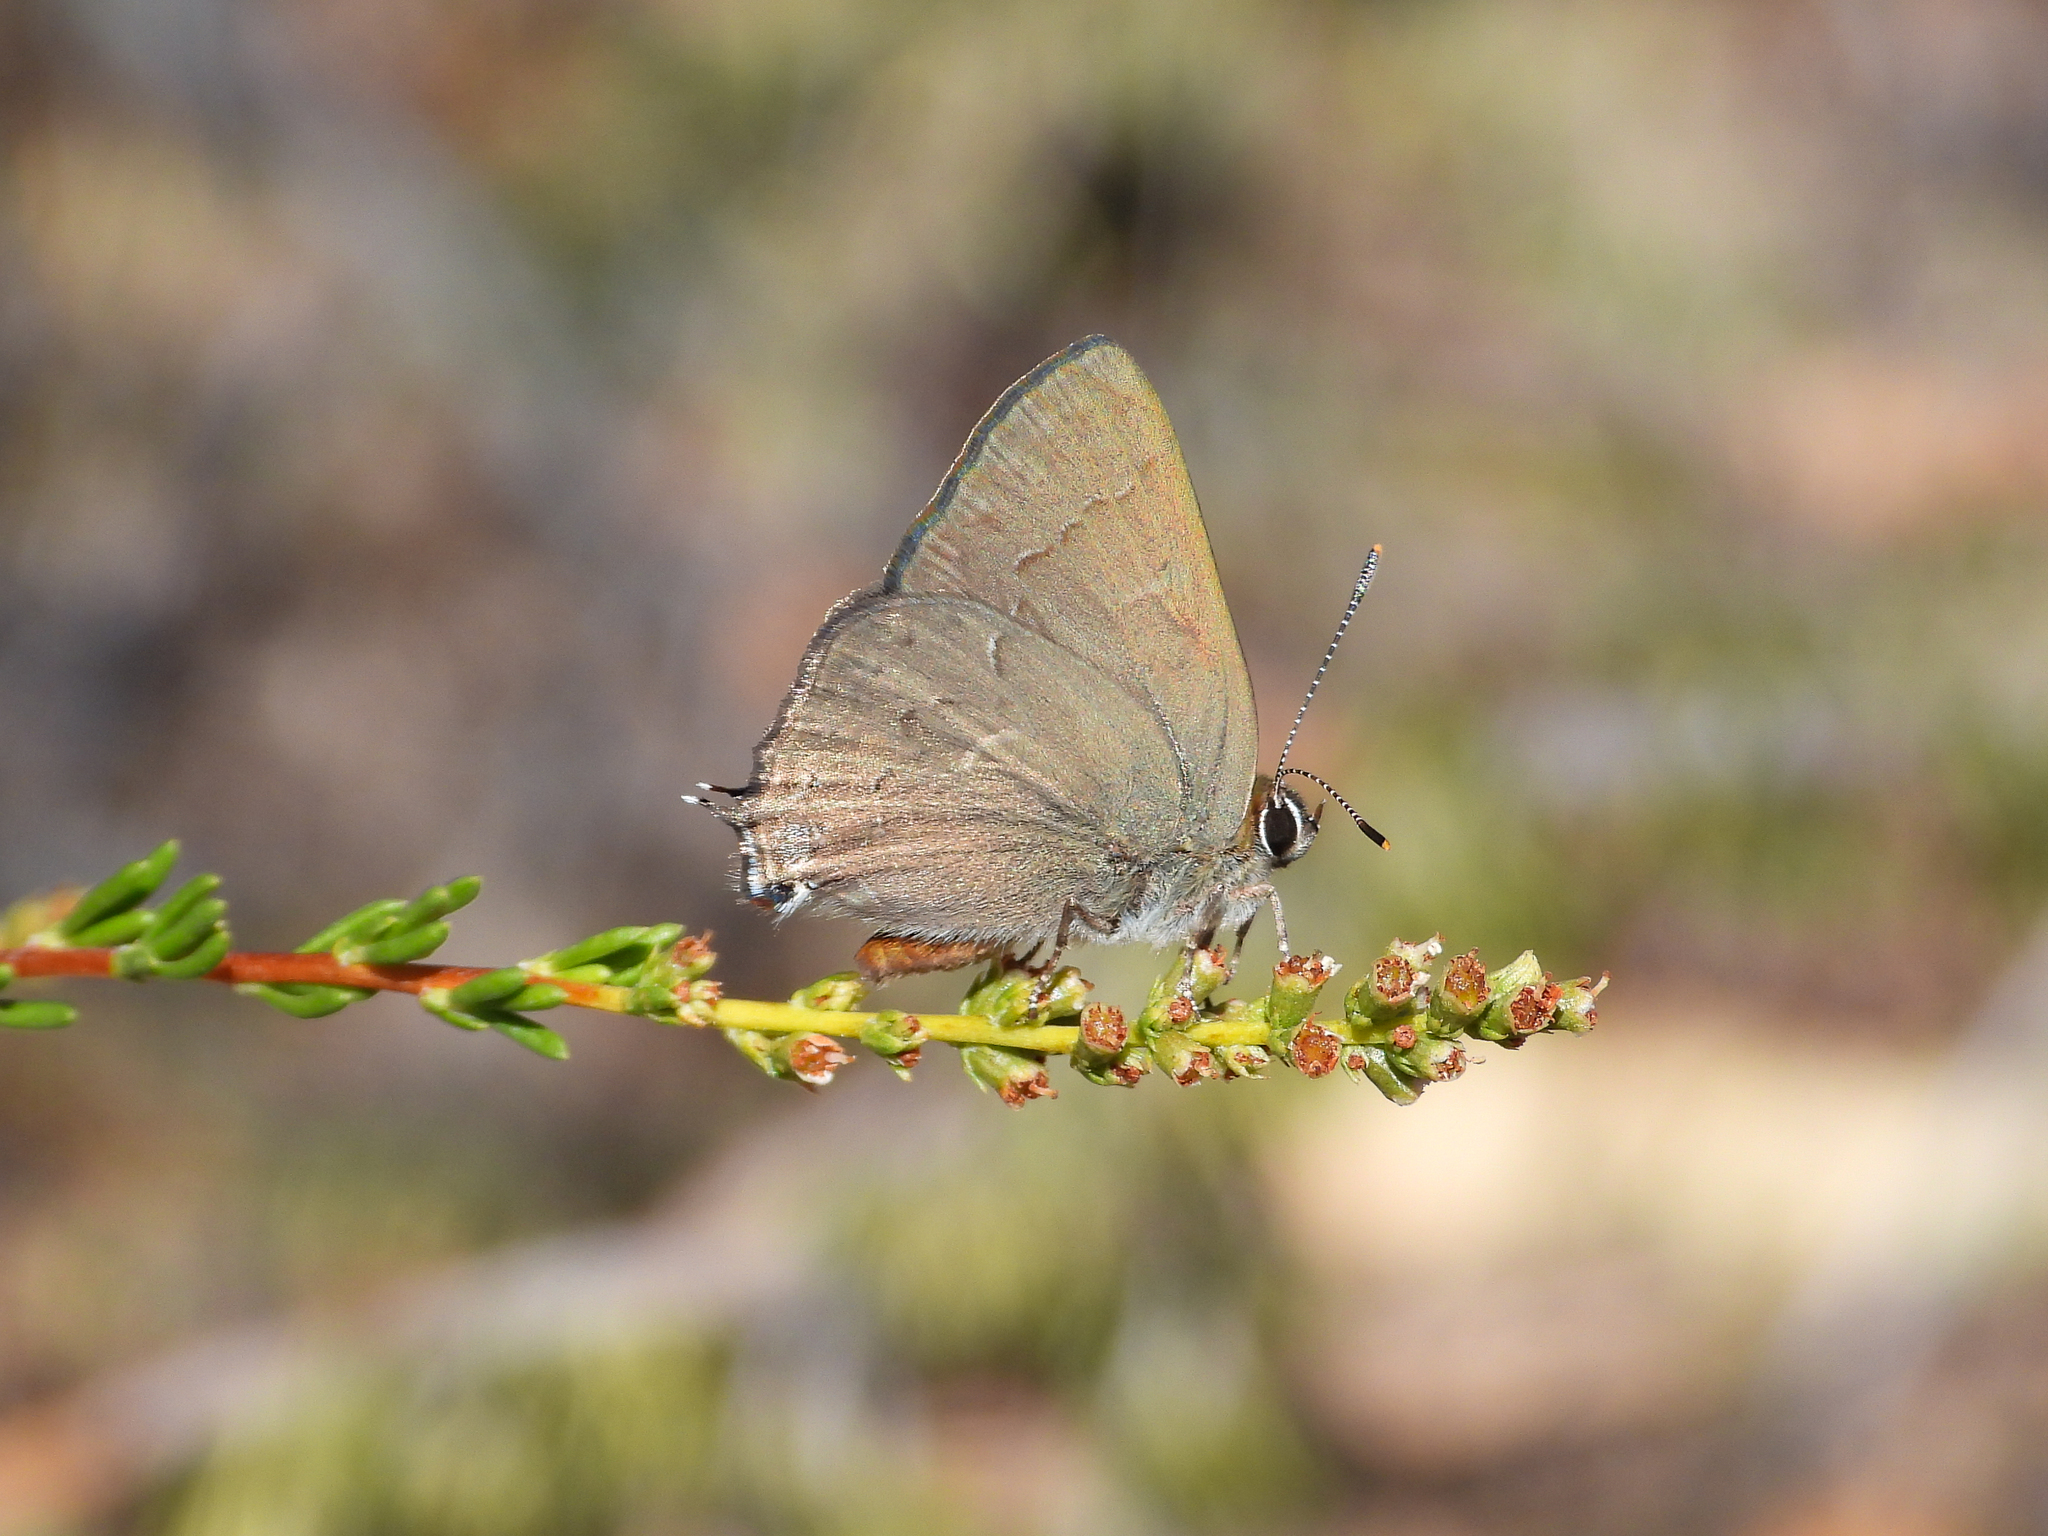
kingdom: Animalia
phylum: Arthropoda
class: Insecta
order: Lepidoptera
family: Lycaenidae
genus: Strymon
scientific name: Strymon saepium
